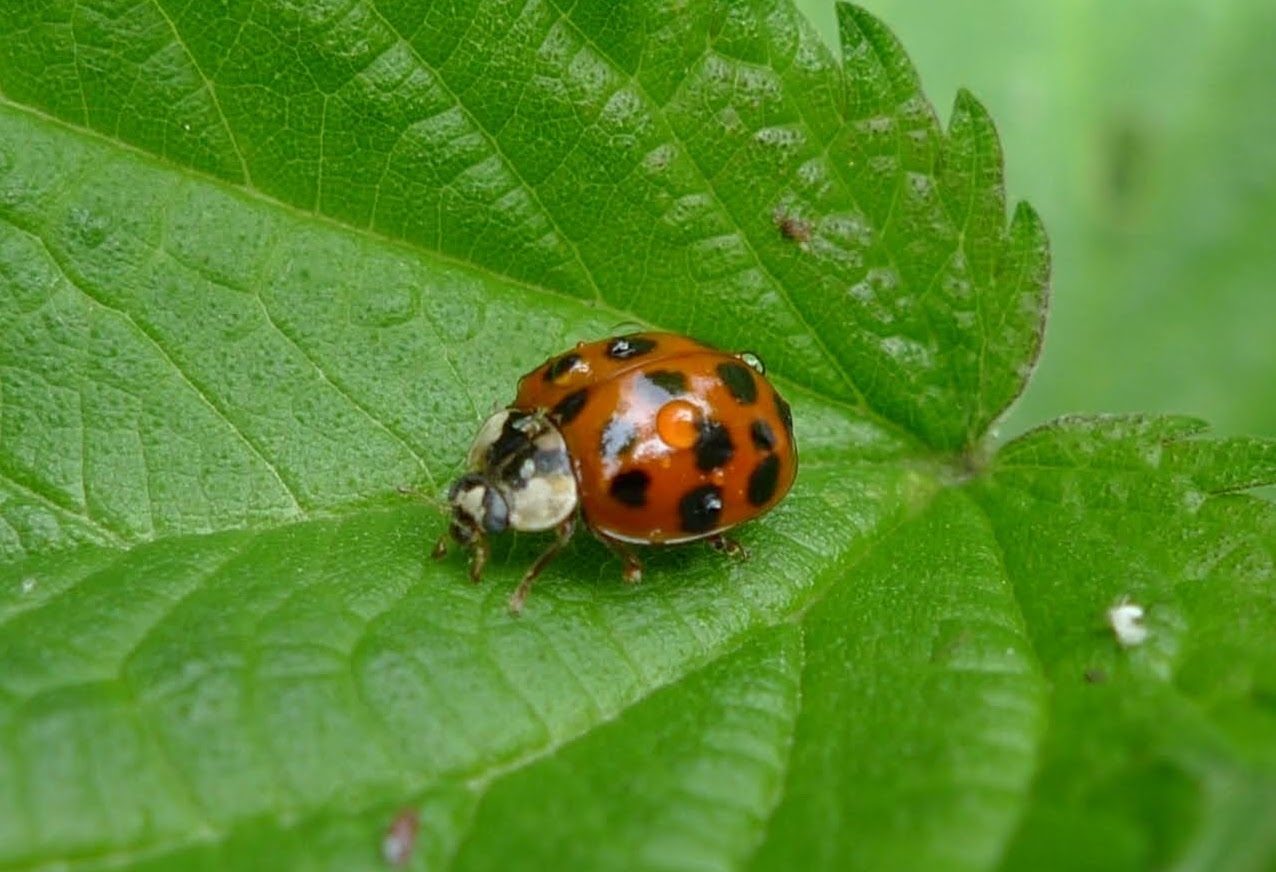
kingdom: Animalia
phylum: Arthropoda
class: Insecta
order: Coleoptera
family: Coccinellidae
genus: Harmonia
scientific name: Harmonia axyridis
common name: Harlequin ladybird
